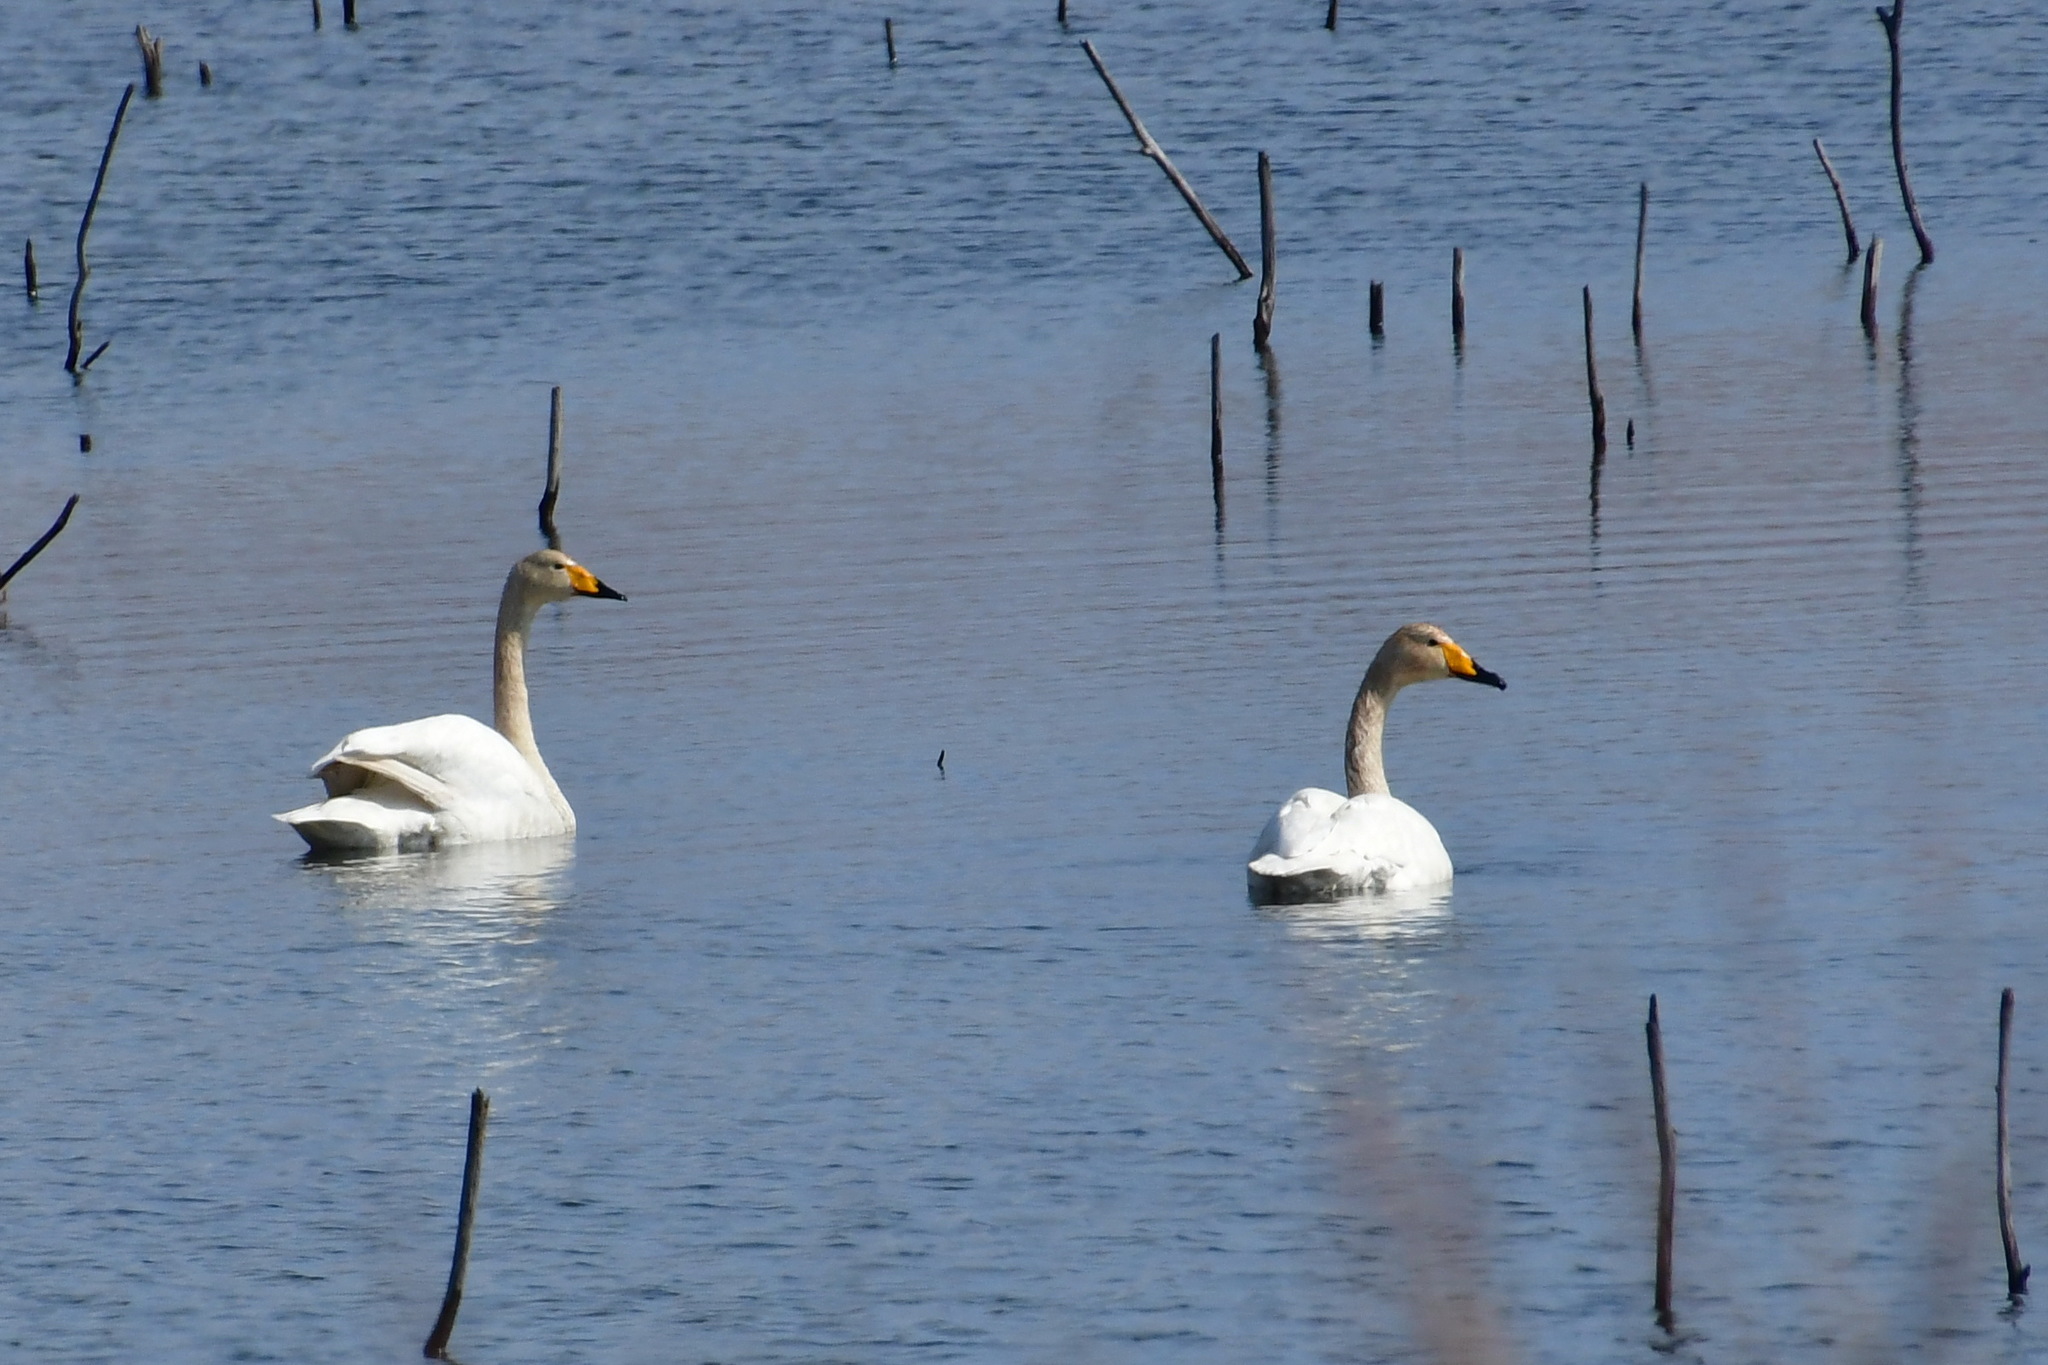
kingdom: Animalia
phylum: Chordata
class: Aves
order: Anseriformes
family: Anatidae
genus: Cygnus
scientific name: Cygnus cygnus
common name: Whooper swan
